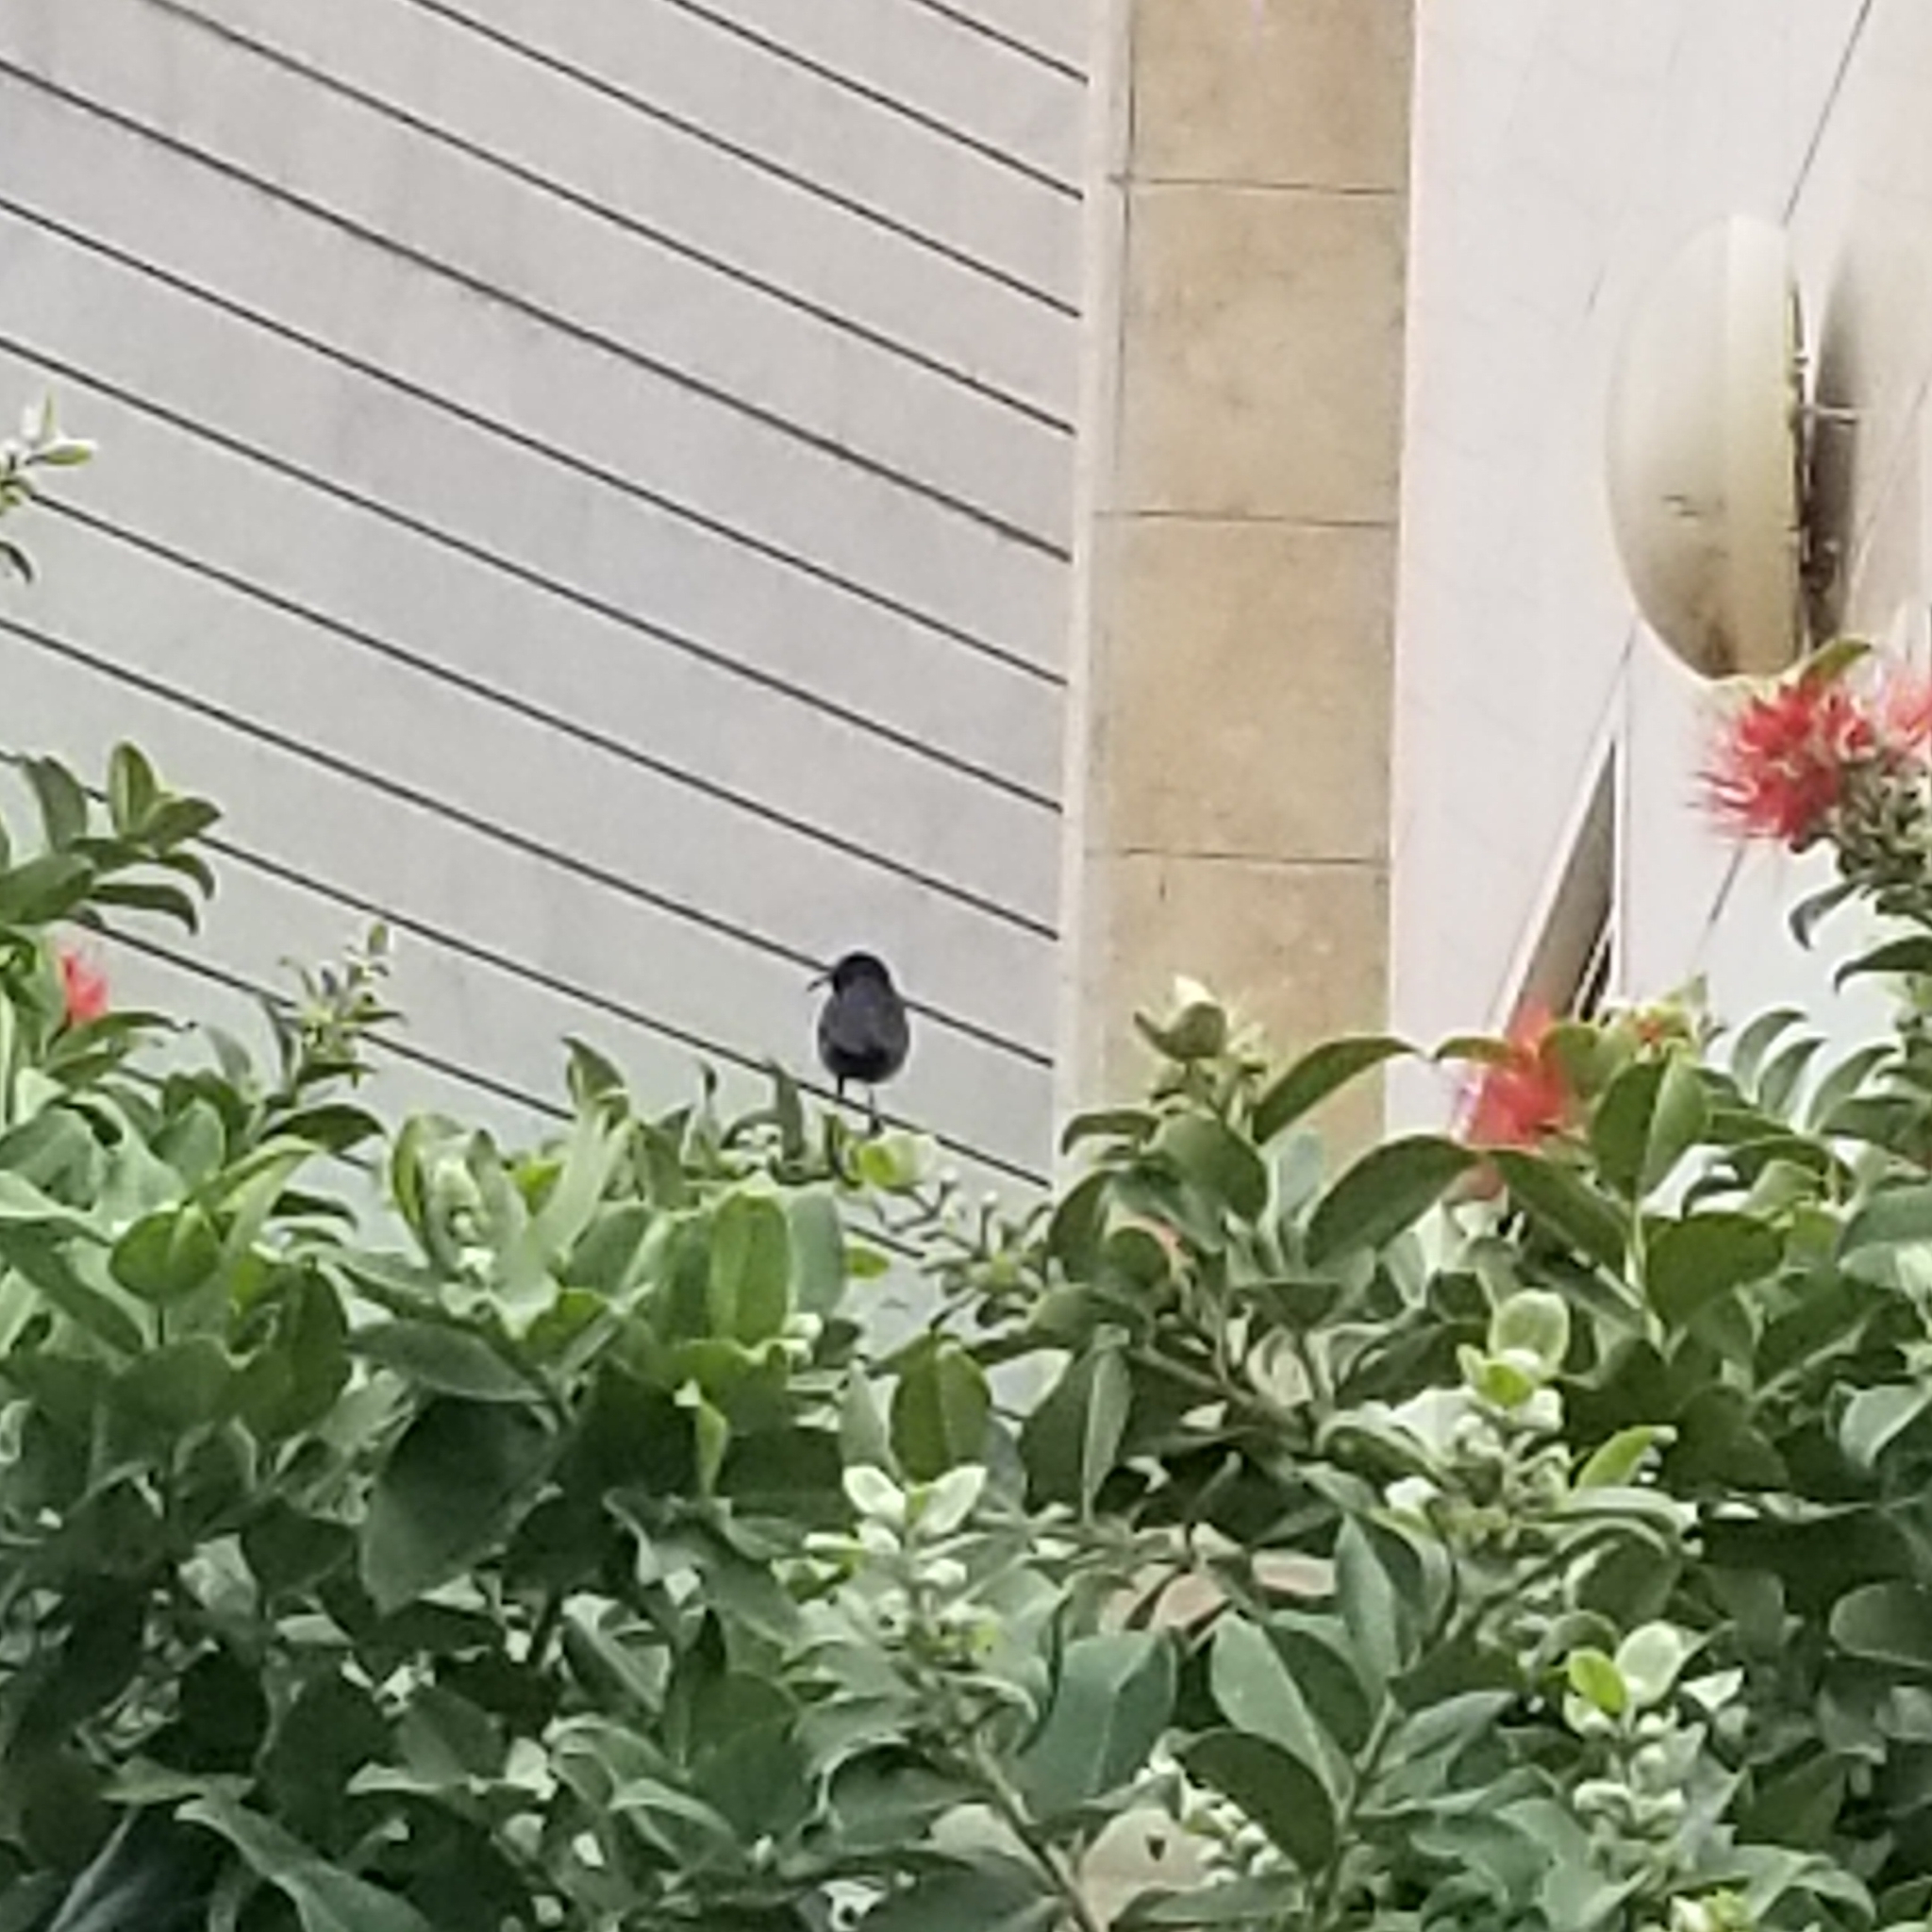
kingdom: Animalia
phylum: Chordata
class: Aves
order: Passeriformes
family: Nectariniidae
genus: Cinnyris
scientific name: Cinnyris osea
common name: Palestine sunbird
